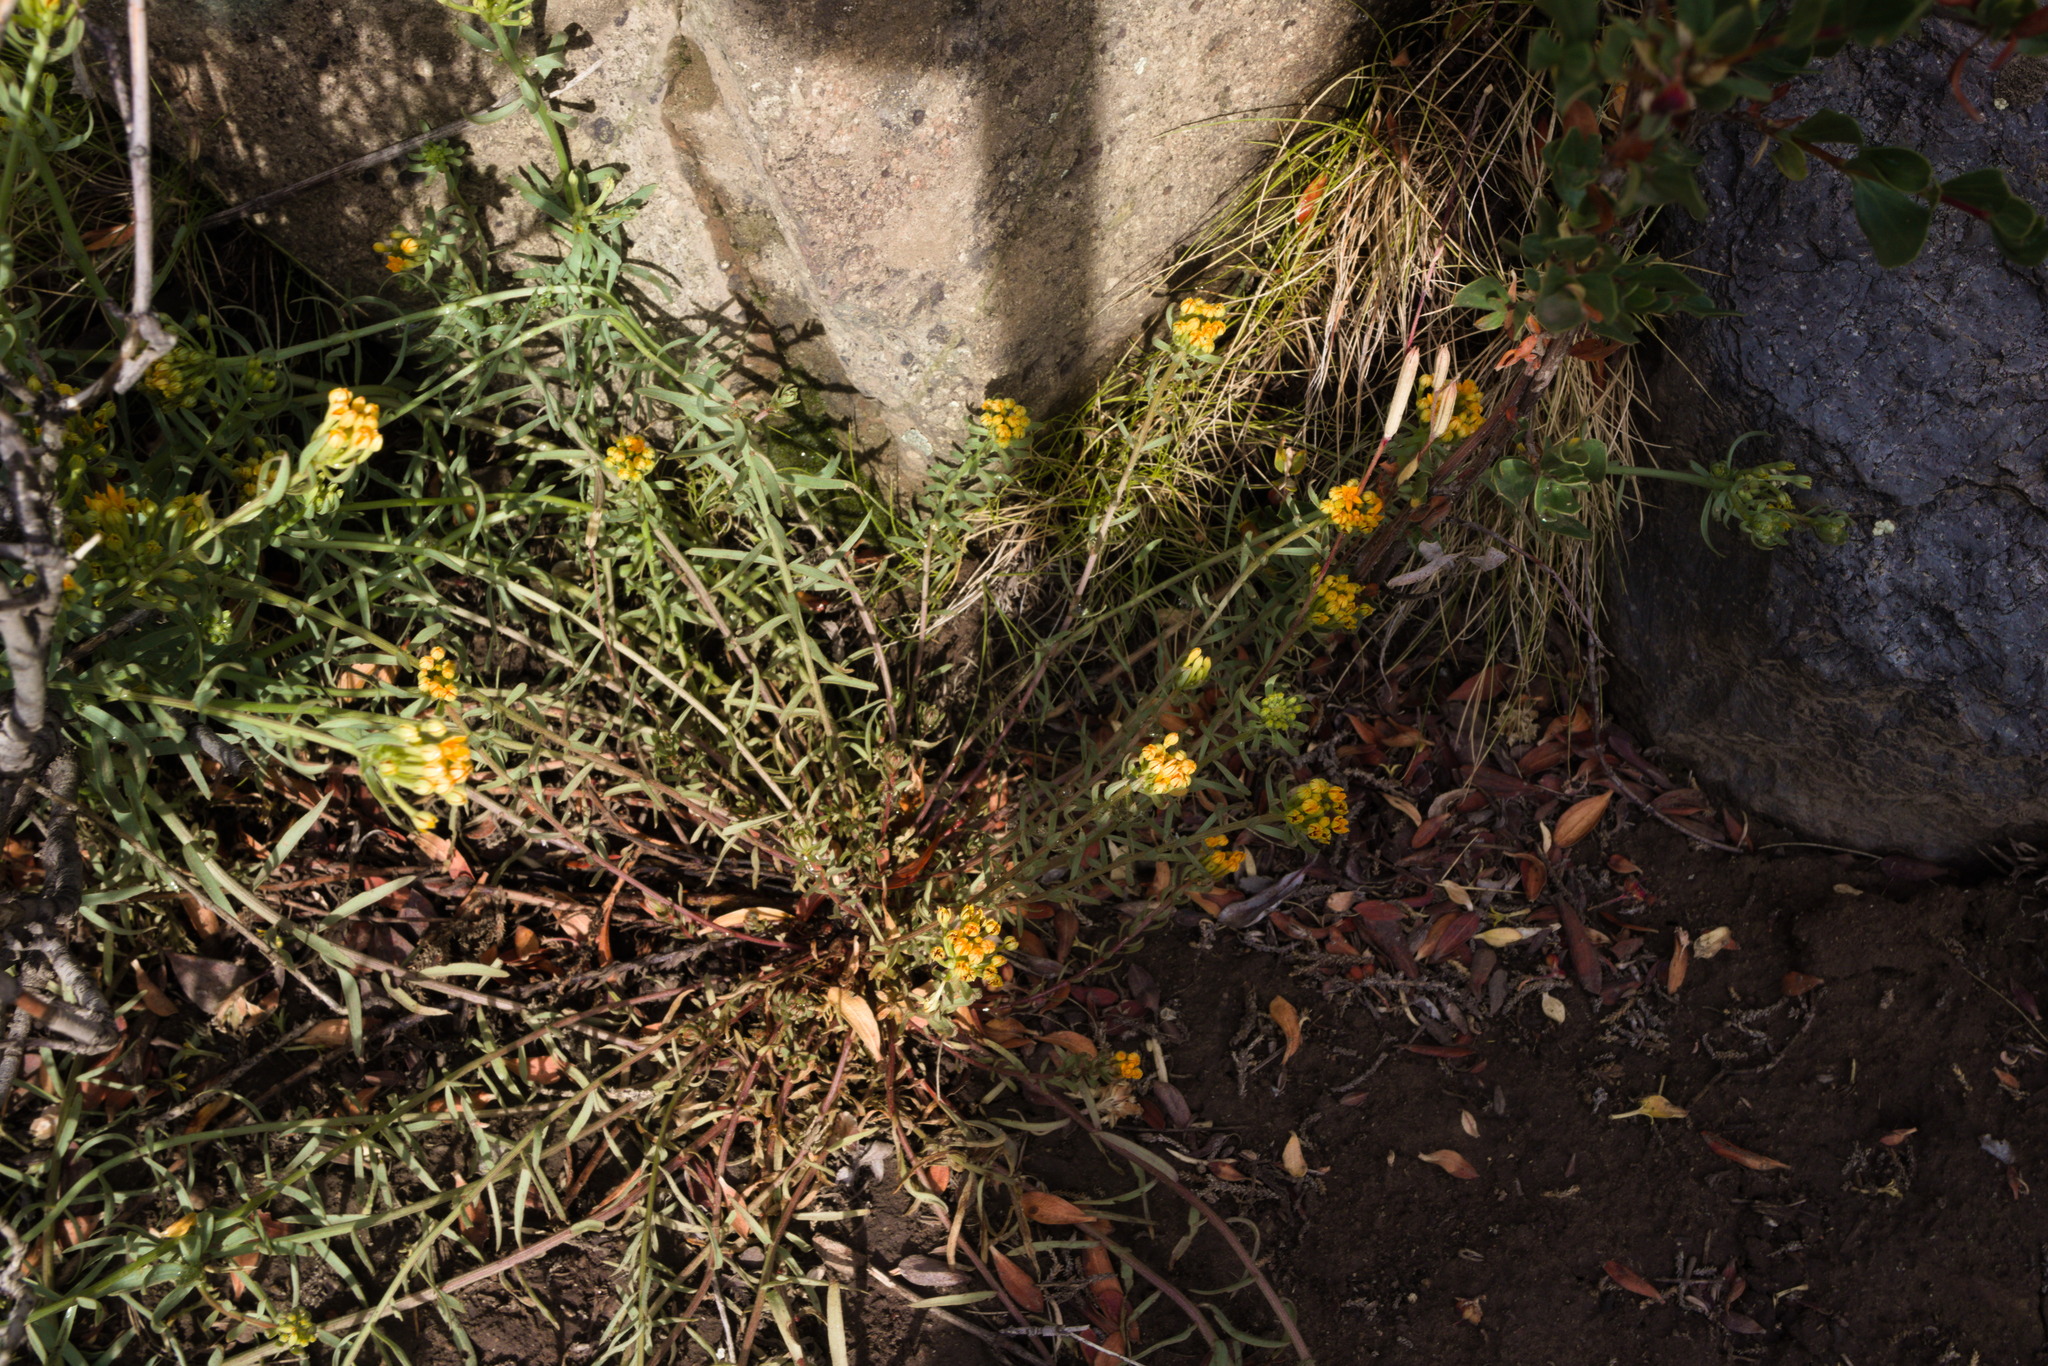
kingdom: Plantae
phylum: Tracheophyta
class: Magnoliopsida
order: Santalales
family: Schoepfiaceae
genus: Quinchamalium
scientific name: Quinchamalium chilense
